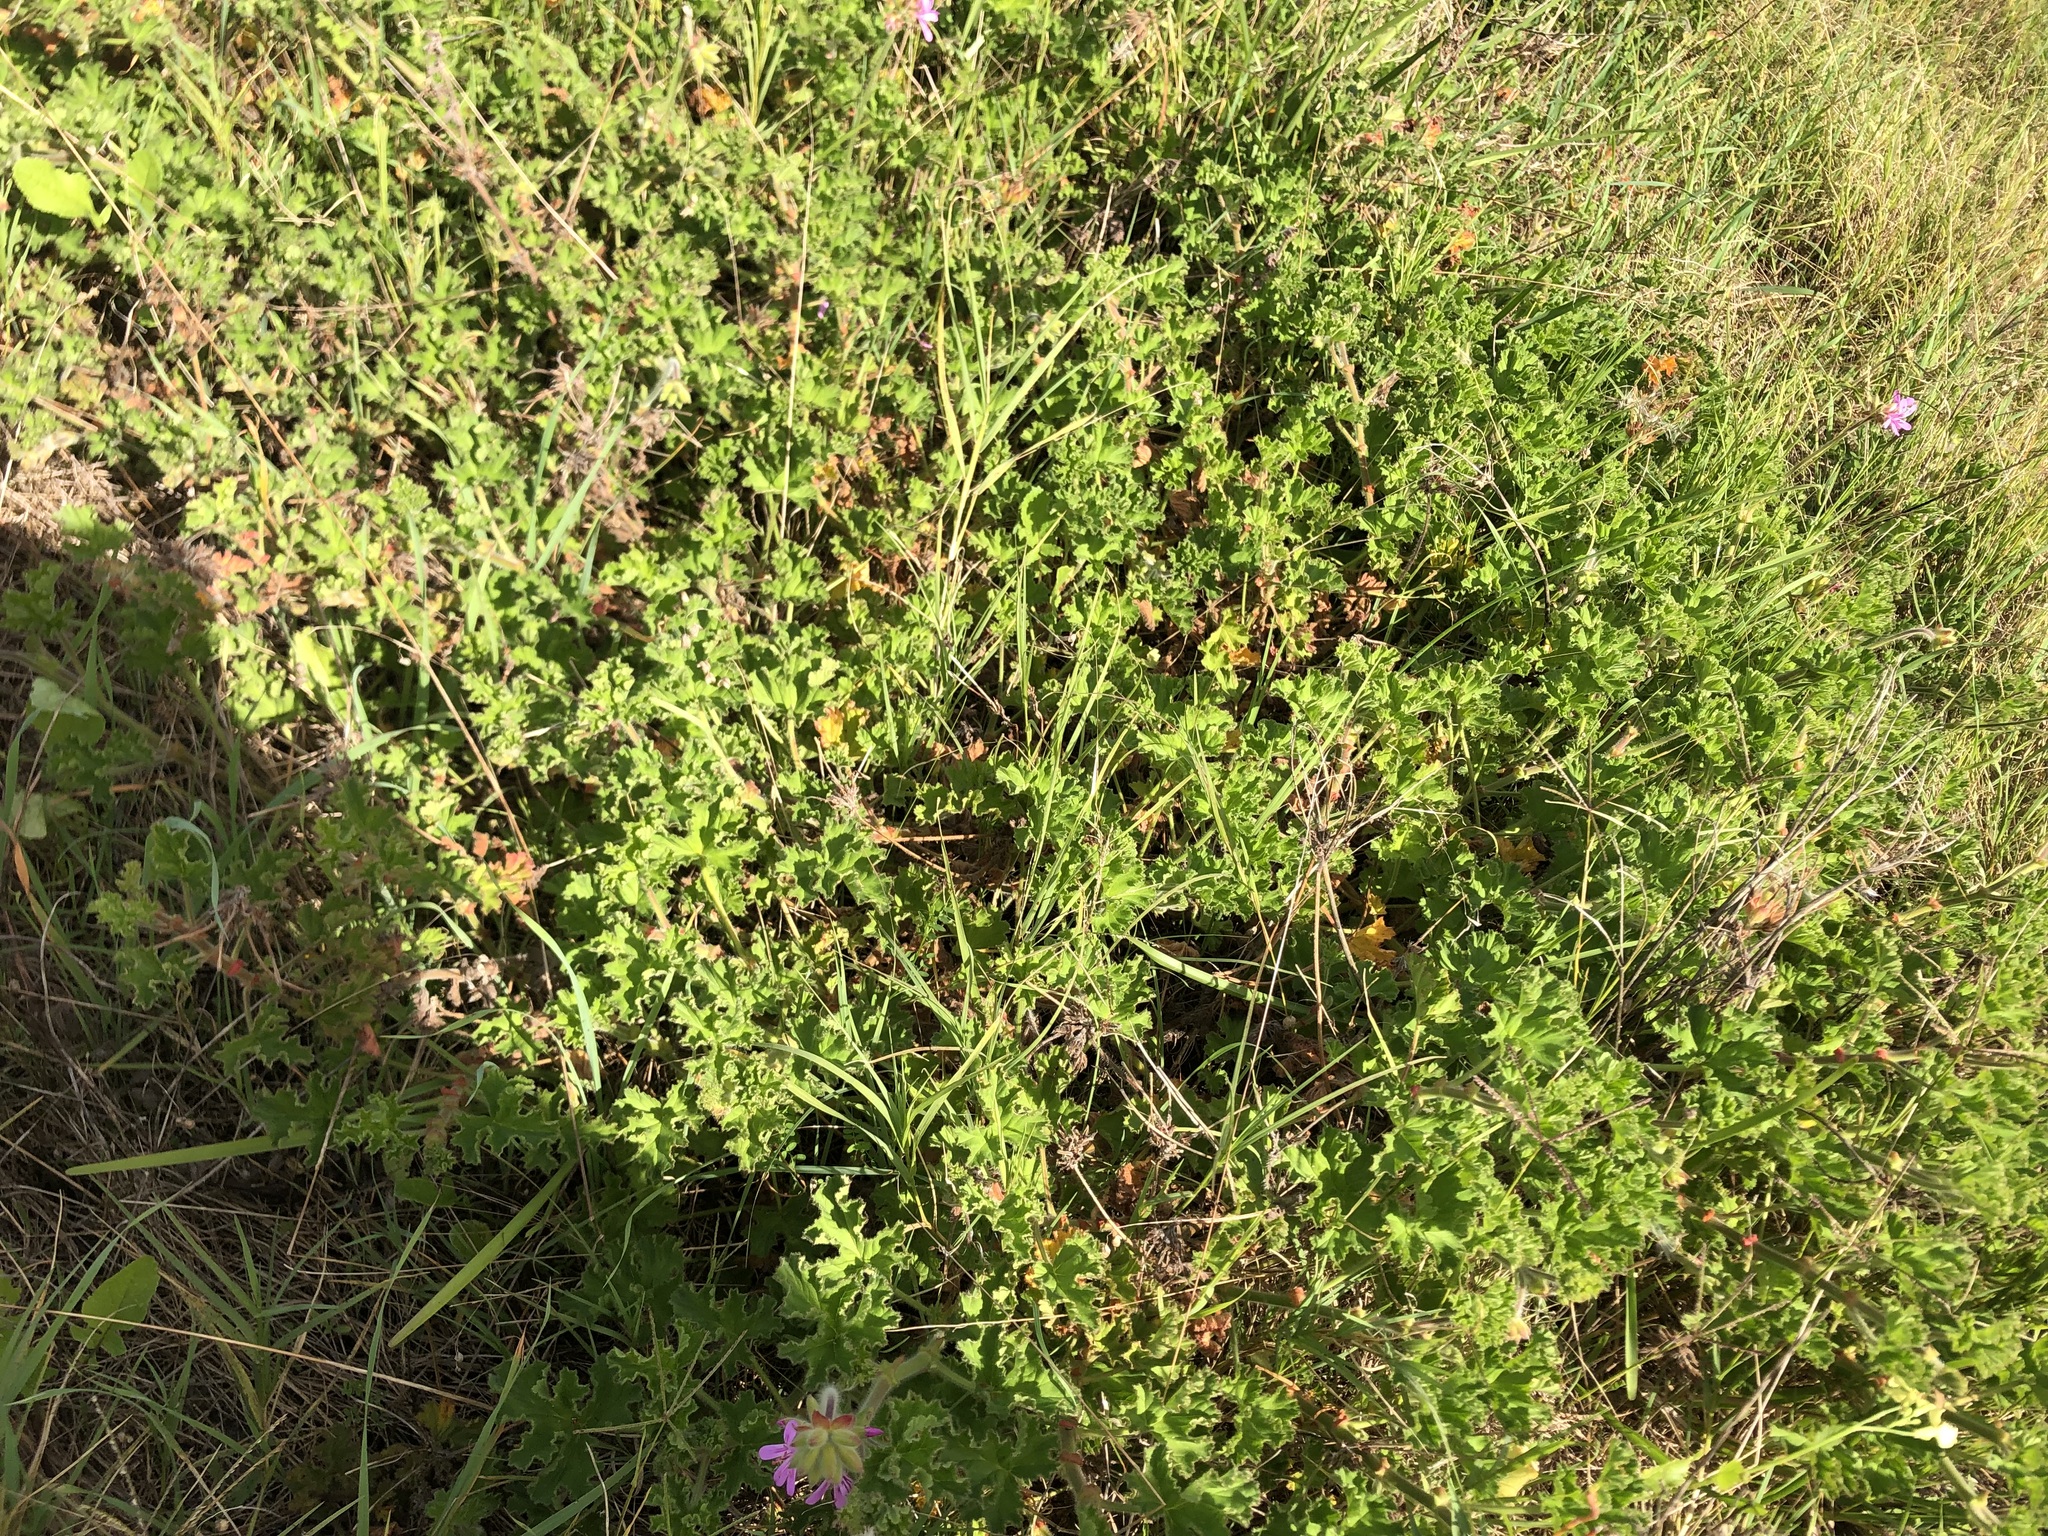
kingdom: Plantae
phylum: Tracheophyta
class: Magnoliopsida
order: Geraniales
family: Geraniaceae
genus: Pelargonium
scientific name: Pelargonium capitatum
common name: Rose scented geranium
